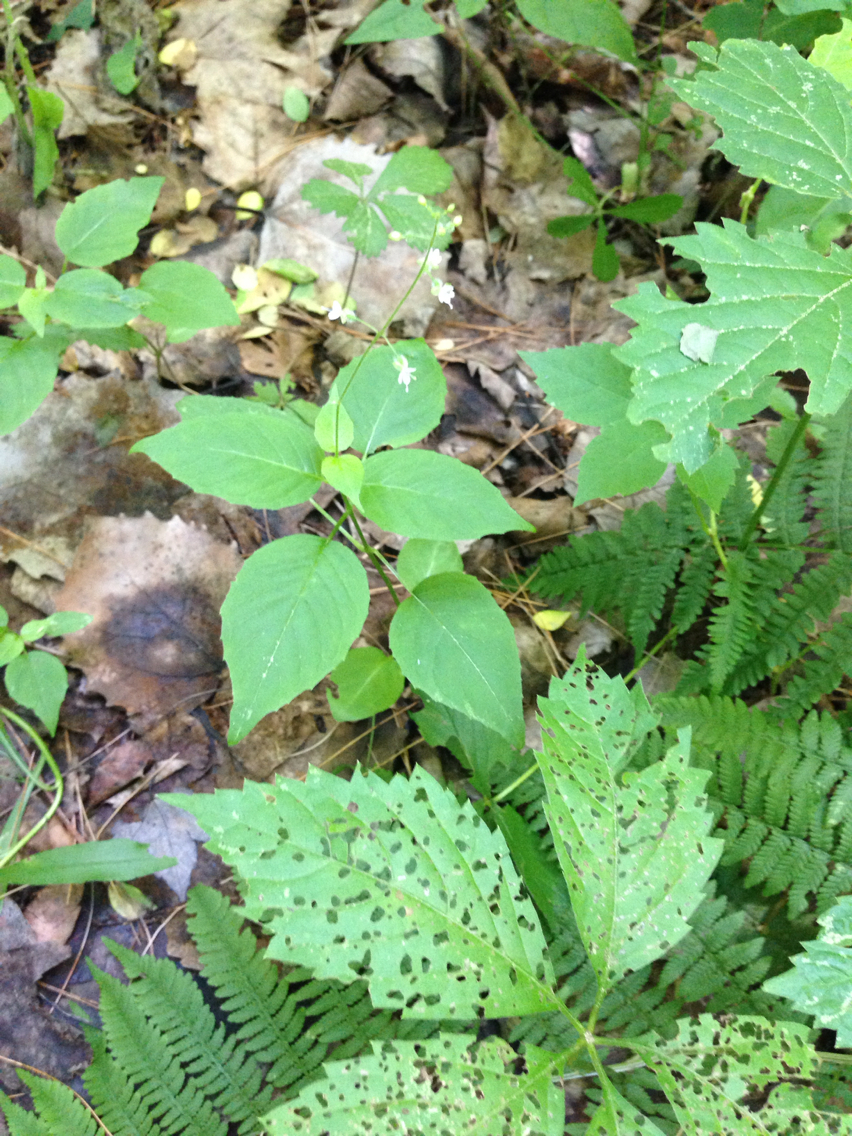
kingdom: Plantae
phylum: Tracheophyta
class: Magnoliopsida
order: Myrtales
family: Onagraceae
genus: Circaea
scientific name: Circaea canadensis
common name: Broad-leaved enchanter's nightshade
